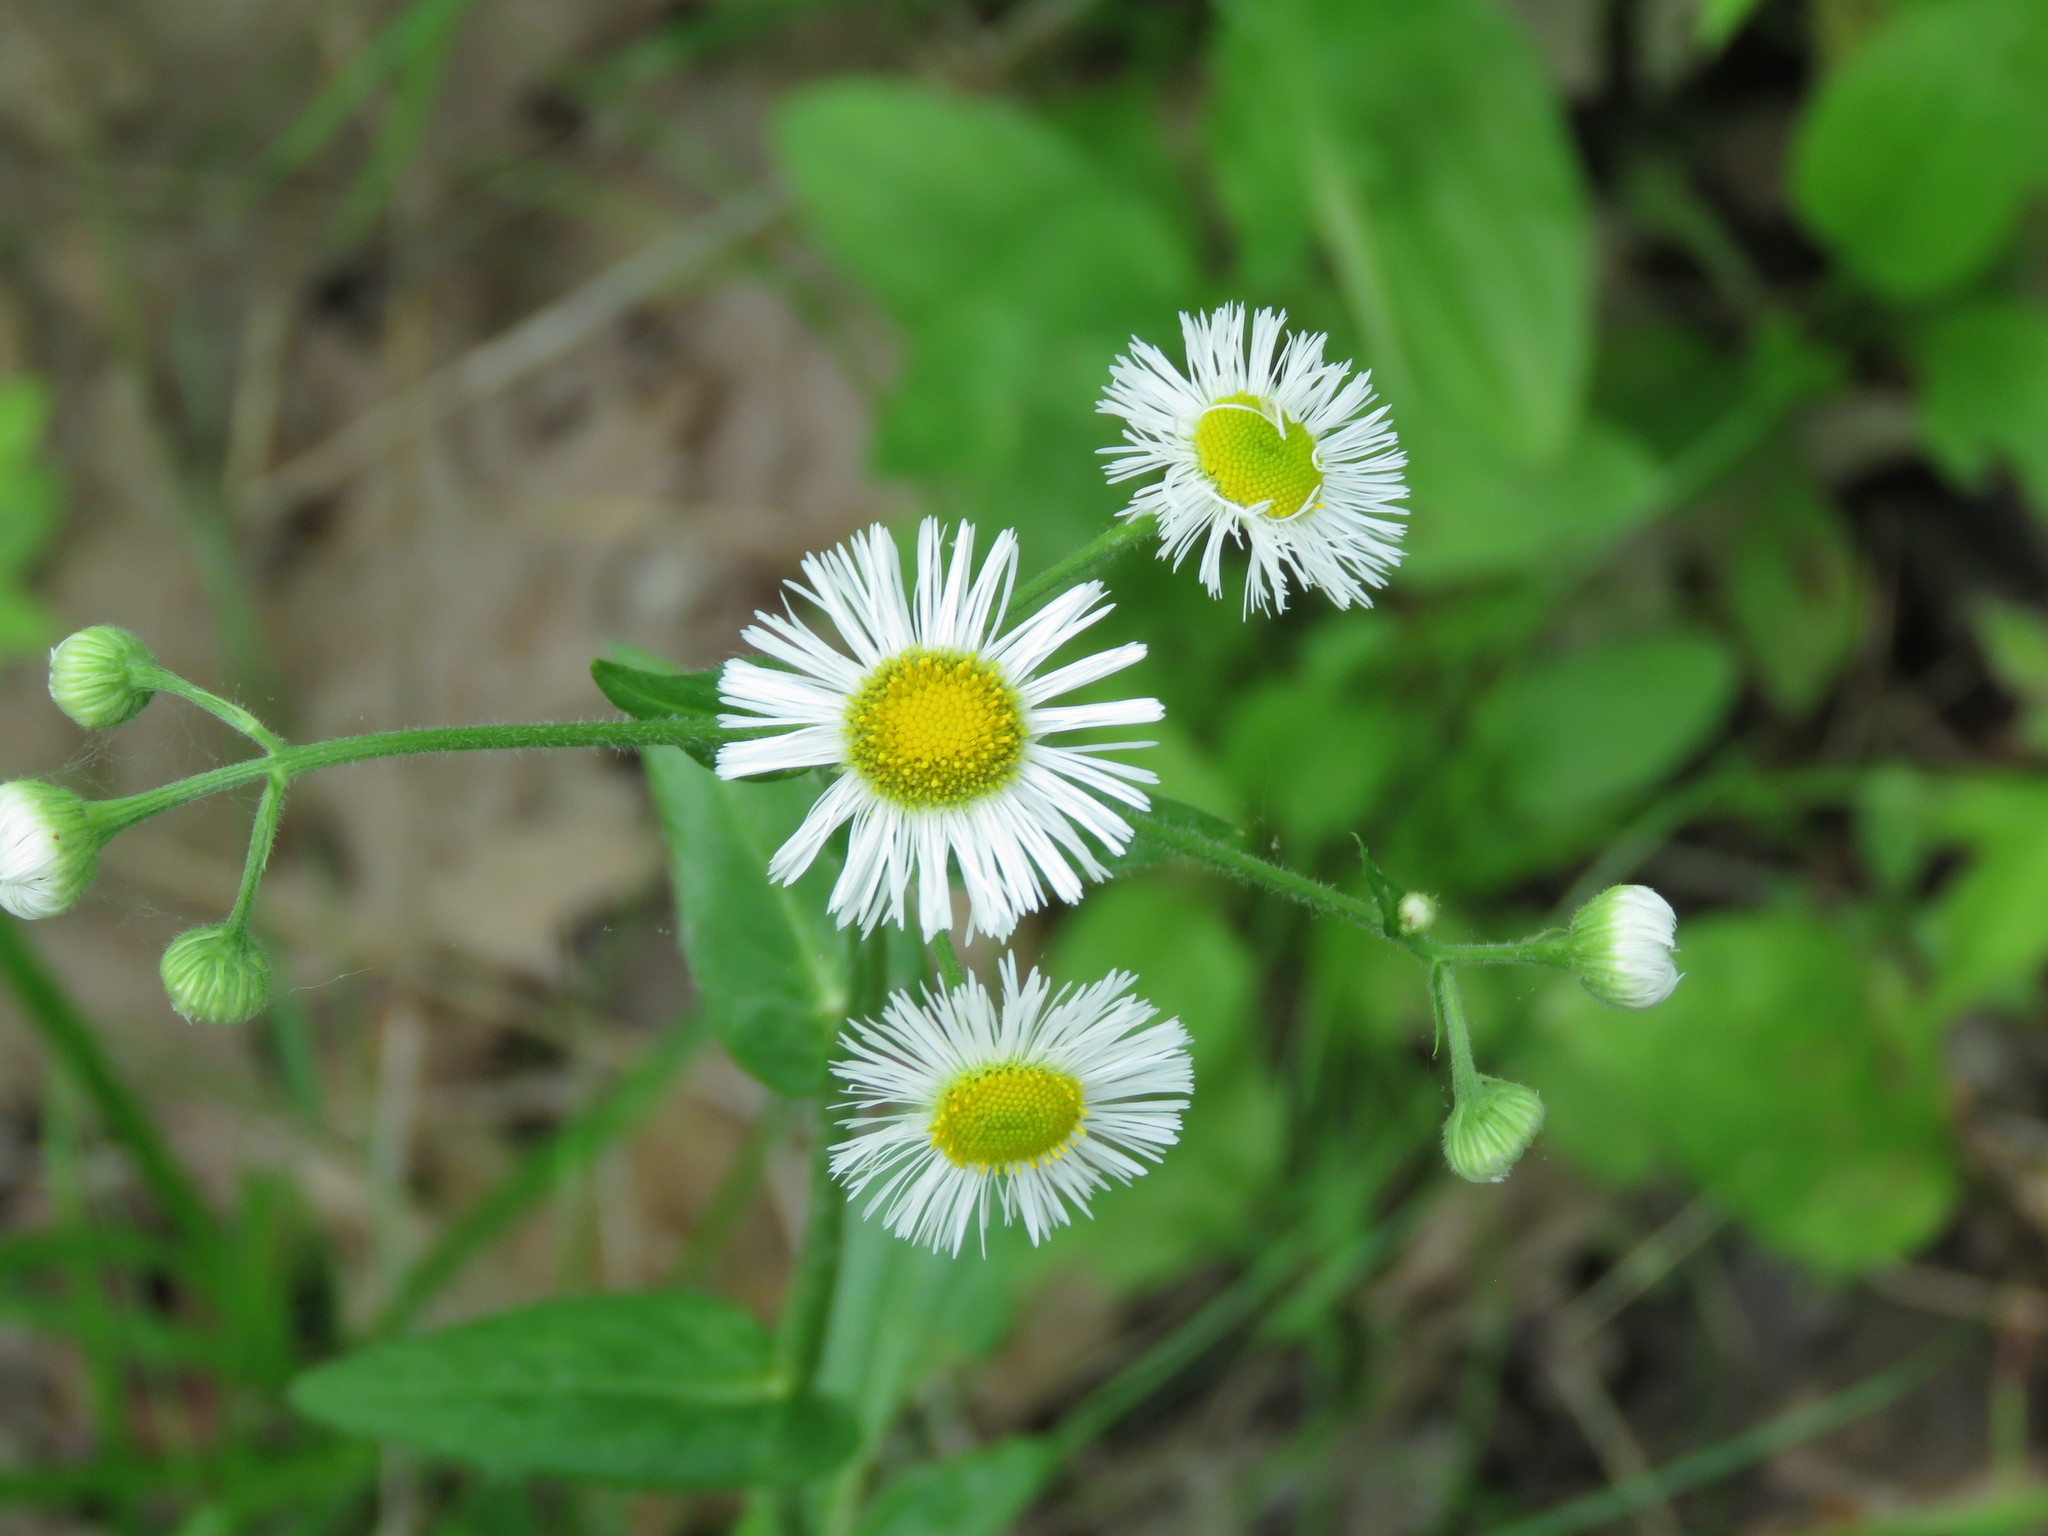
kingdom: Plantae
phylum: Tracheophyta
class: Magnoliopsida
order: Asterales
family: Asteraceae
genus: Erigeron
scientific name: Erigeron philadelphicus
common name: Robin's-plantain
